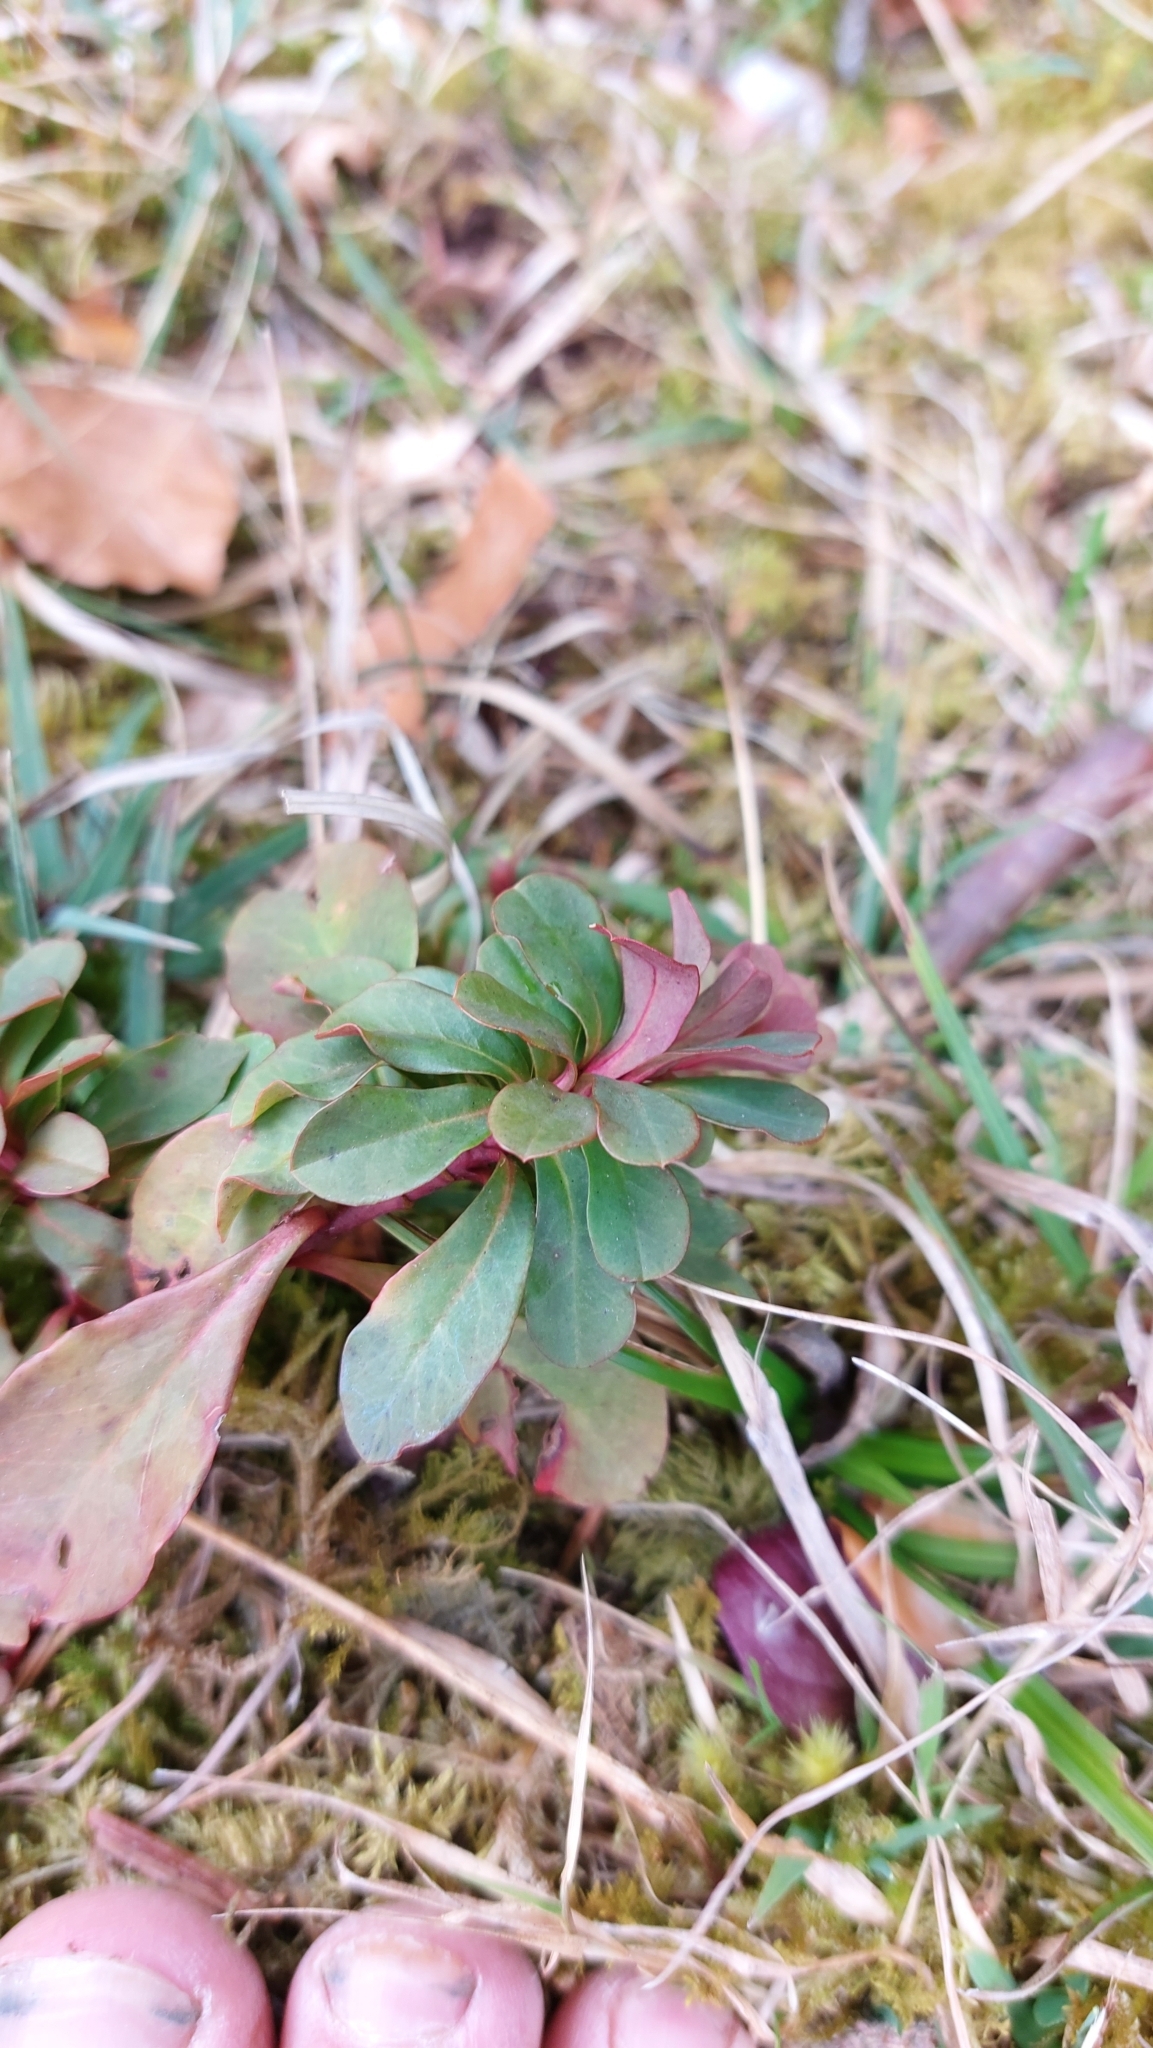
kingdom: Plantae
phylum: Tracheophyta
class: Magnoliopsida
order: Malpighiales
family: Euphorbiaceae
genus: Euphorbia
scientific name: Euphorbia amygdaloides
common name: Wood spurge
